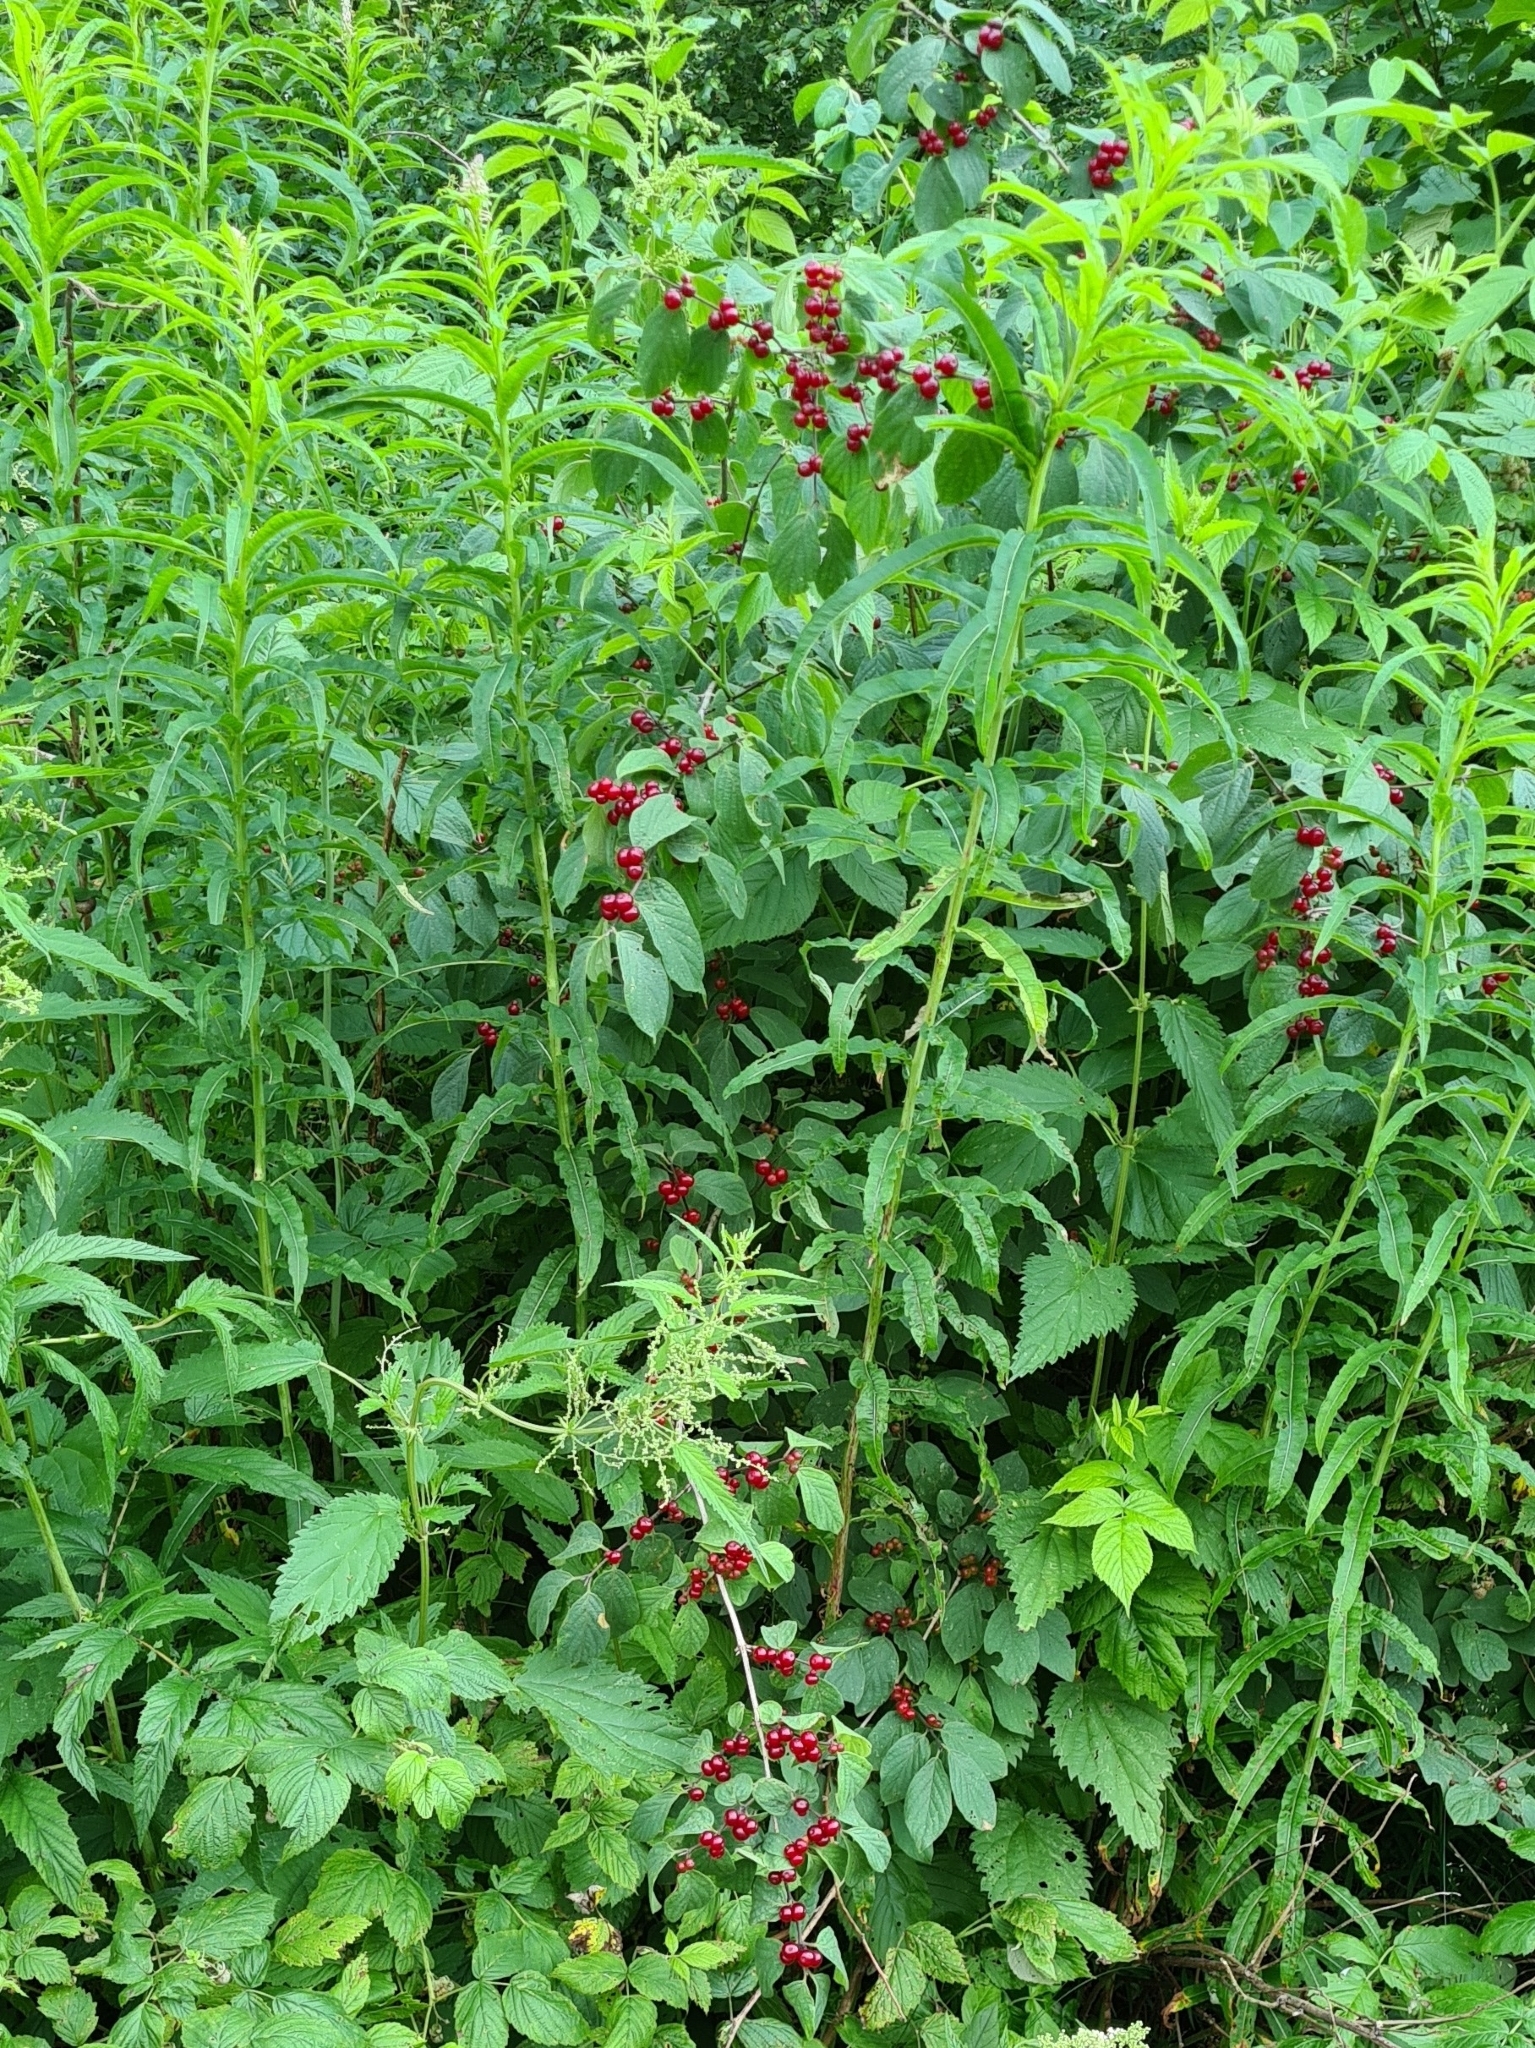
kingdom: Plantae
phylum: Tracheophyta
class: Magnoliopsida
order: Dipsacales
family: Caprifoliaceae
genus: Lonicera
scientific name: Lonicera xylosteum
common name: Fly honeysuckle
